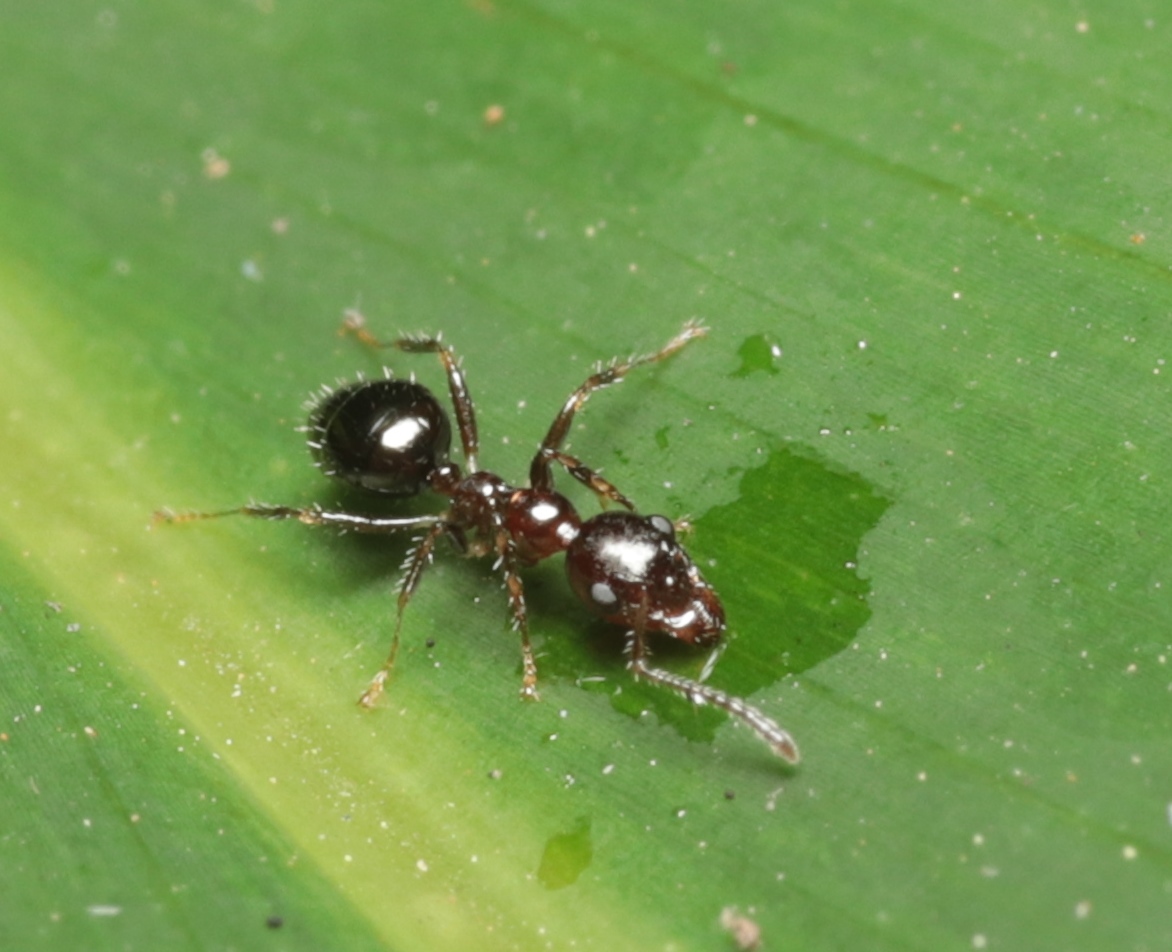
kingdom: Animalia
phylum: Arthropoda
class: Insecta
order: Hymenoptera
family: Formicidae
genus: Myrmecorhynchus
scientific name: Myrmecorhynchus emeryi
